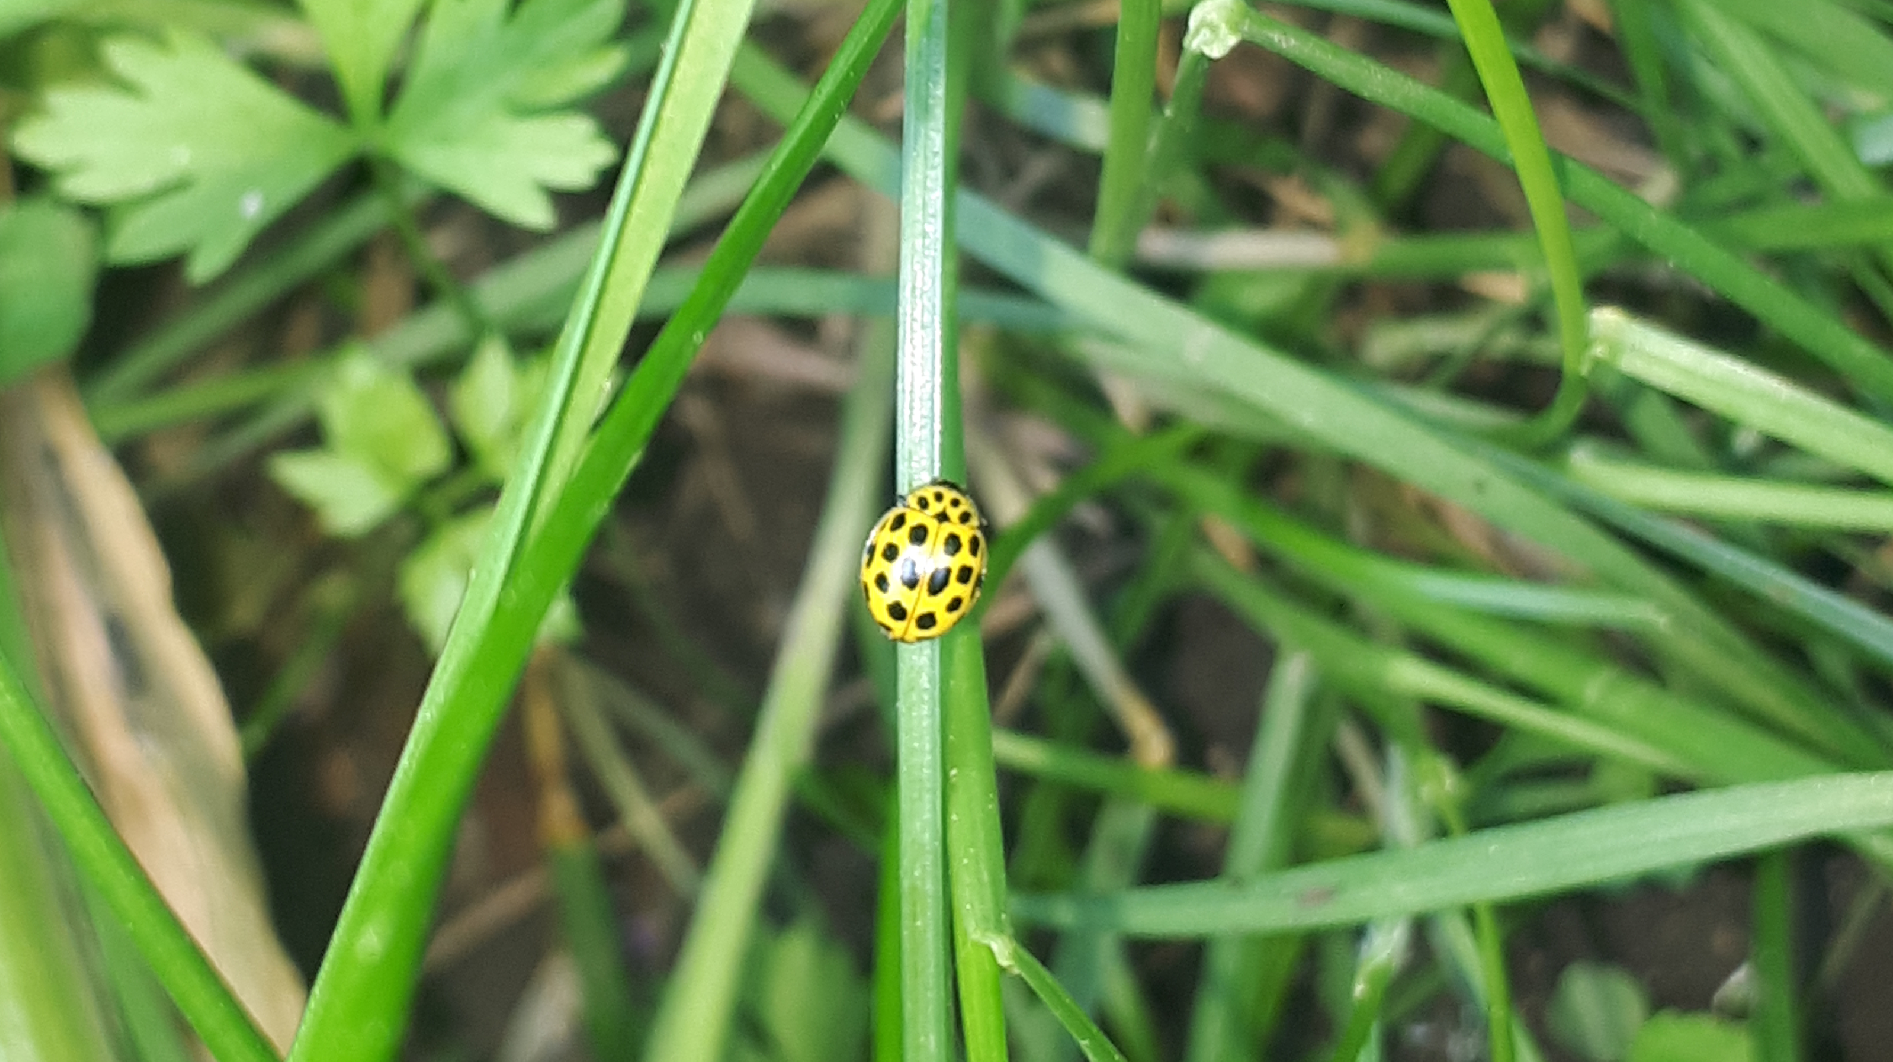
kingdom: Animalia
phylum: Arthropoda
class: Insecta
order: Coleoptera
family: Coccinellidae
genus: Psyllobora
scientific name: Psyllobora vigintiduopunctata
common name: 22-spot ladybird
